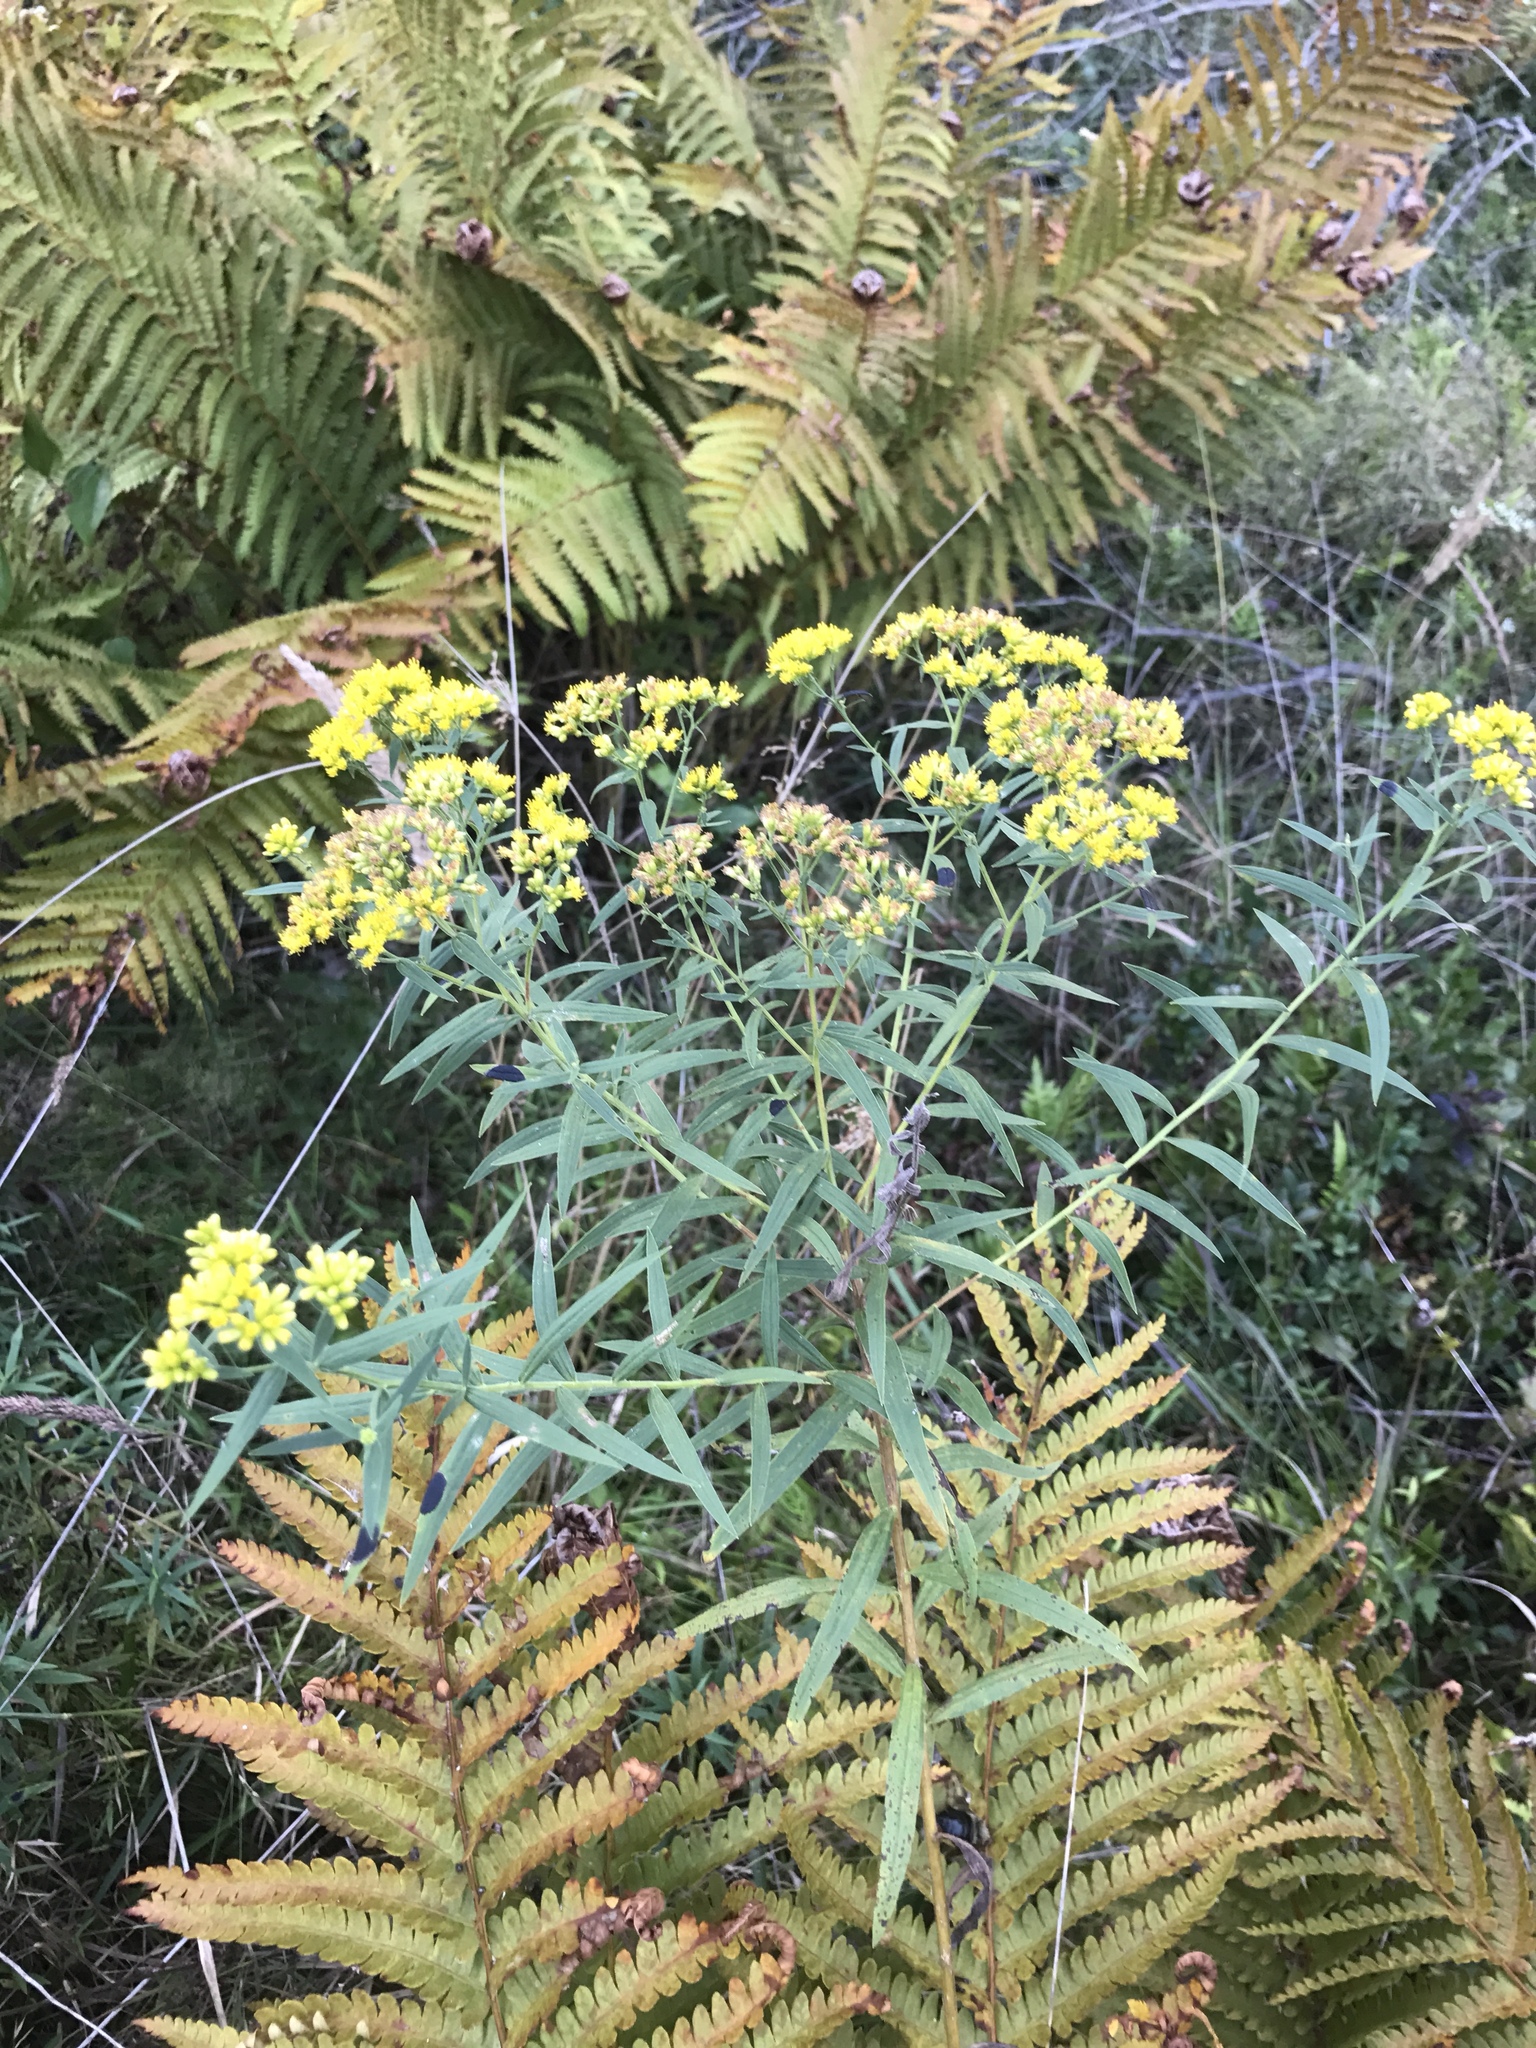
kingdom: Plantae
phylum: Tracheophyta
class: Magnoliopsida
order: Asterales
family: Asteraceae
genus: Euthamia
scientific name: Euthamia graminifolia
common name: Common goldentop
